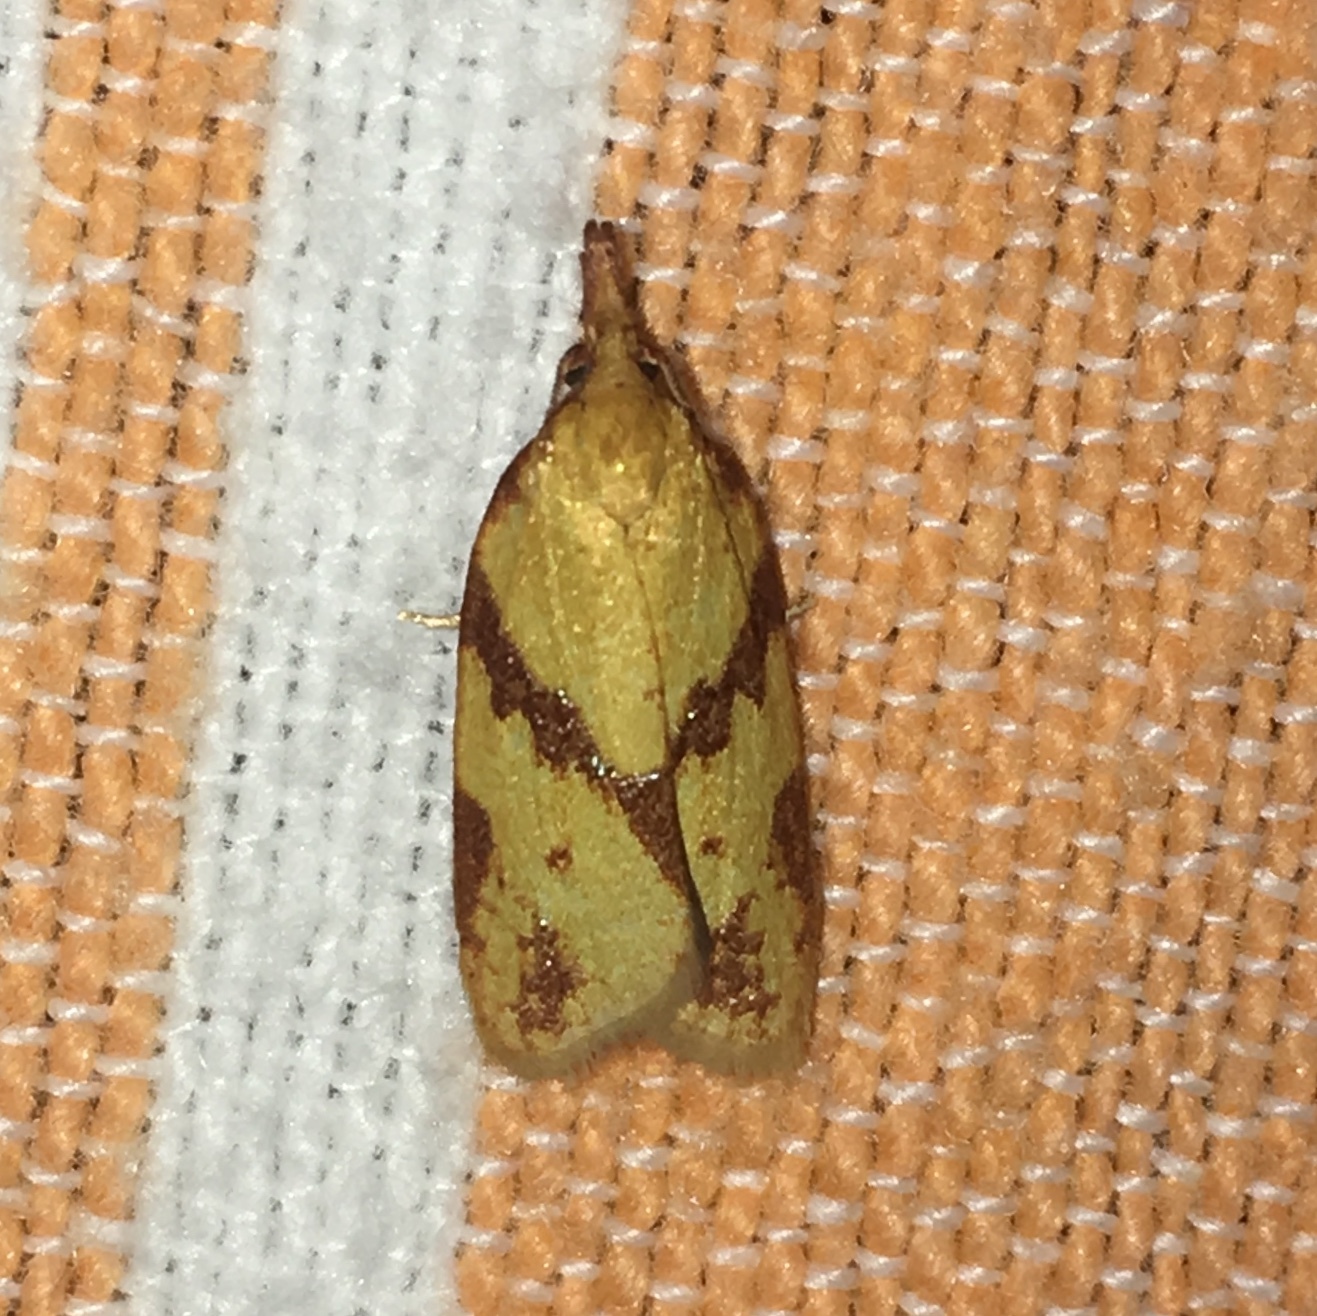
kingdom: Animalia
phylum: Arthropoda
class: Insecta
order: Lepidoptera
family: Tortricidae
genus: Sparganothis
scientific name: Sparganothis unifasciana
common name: One-lined sparganothis moth
